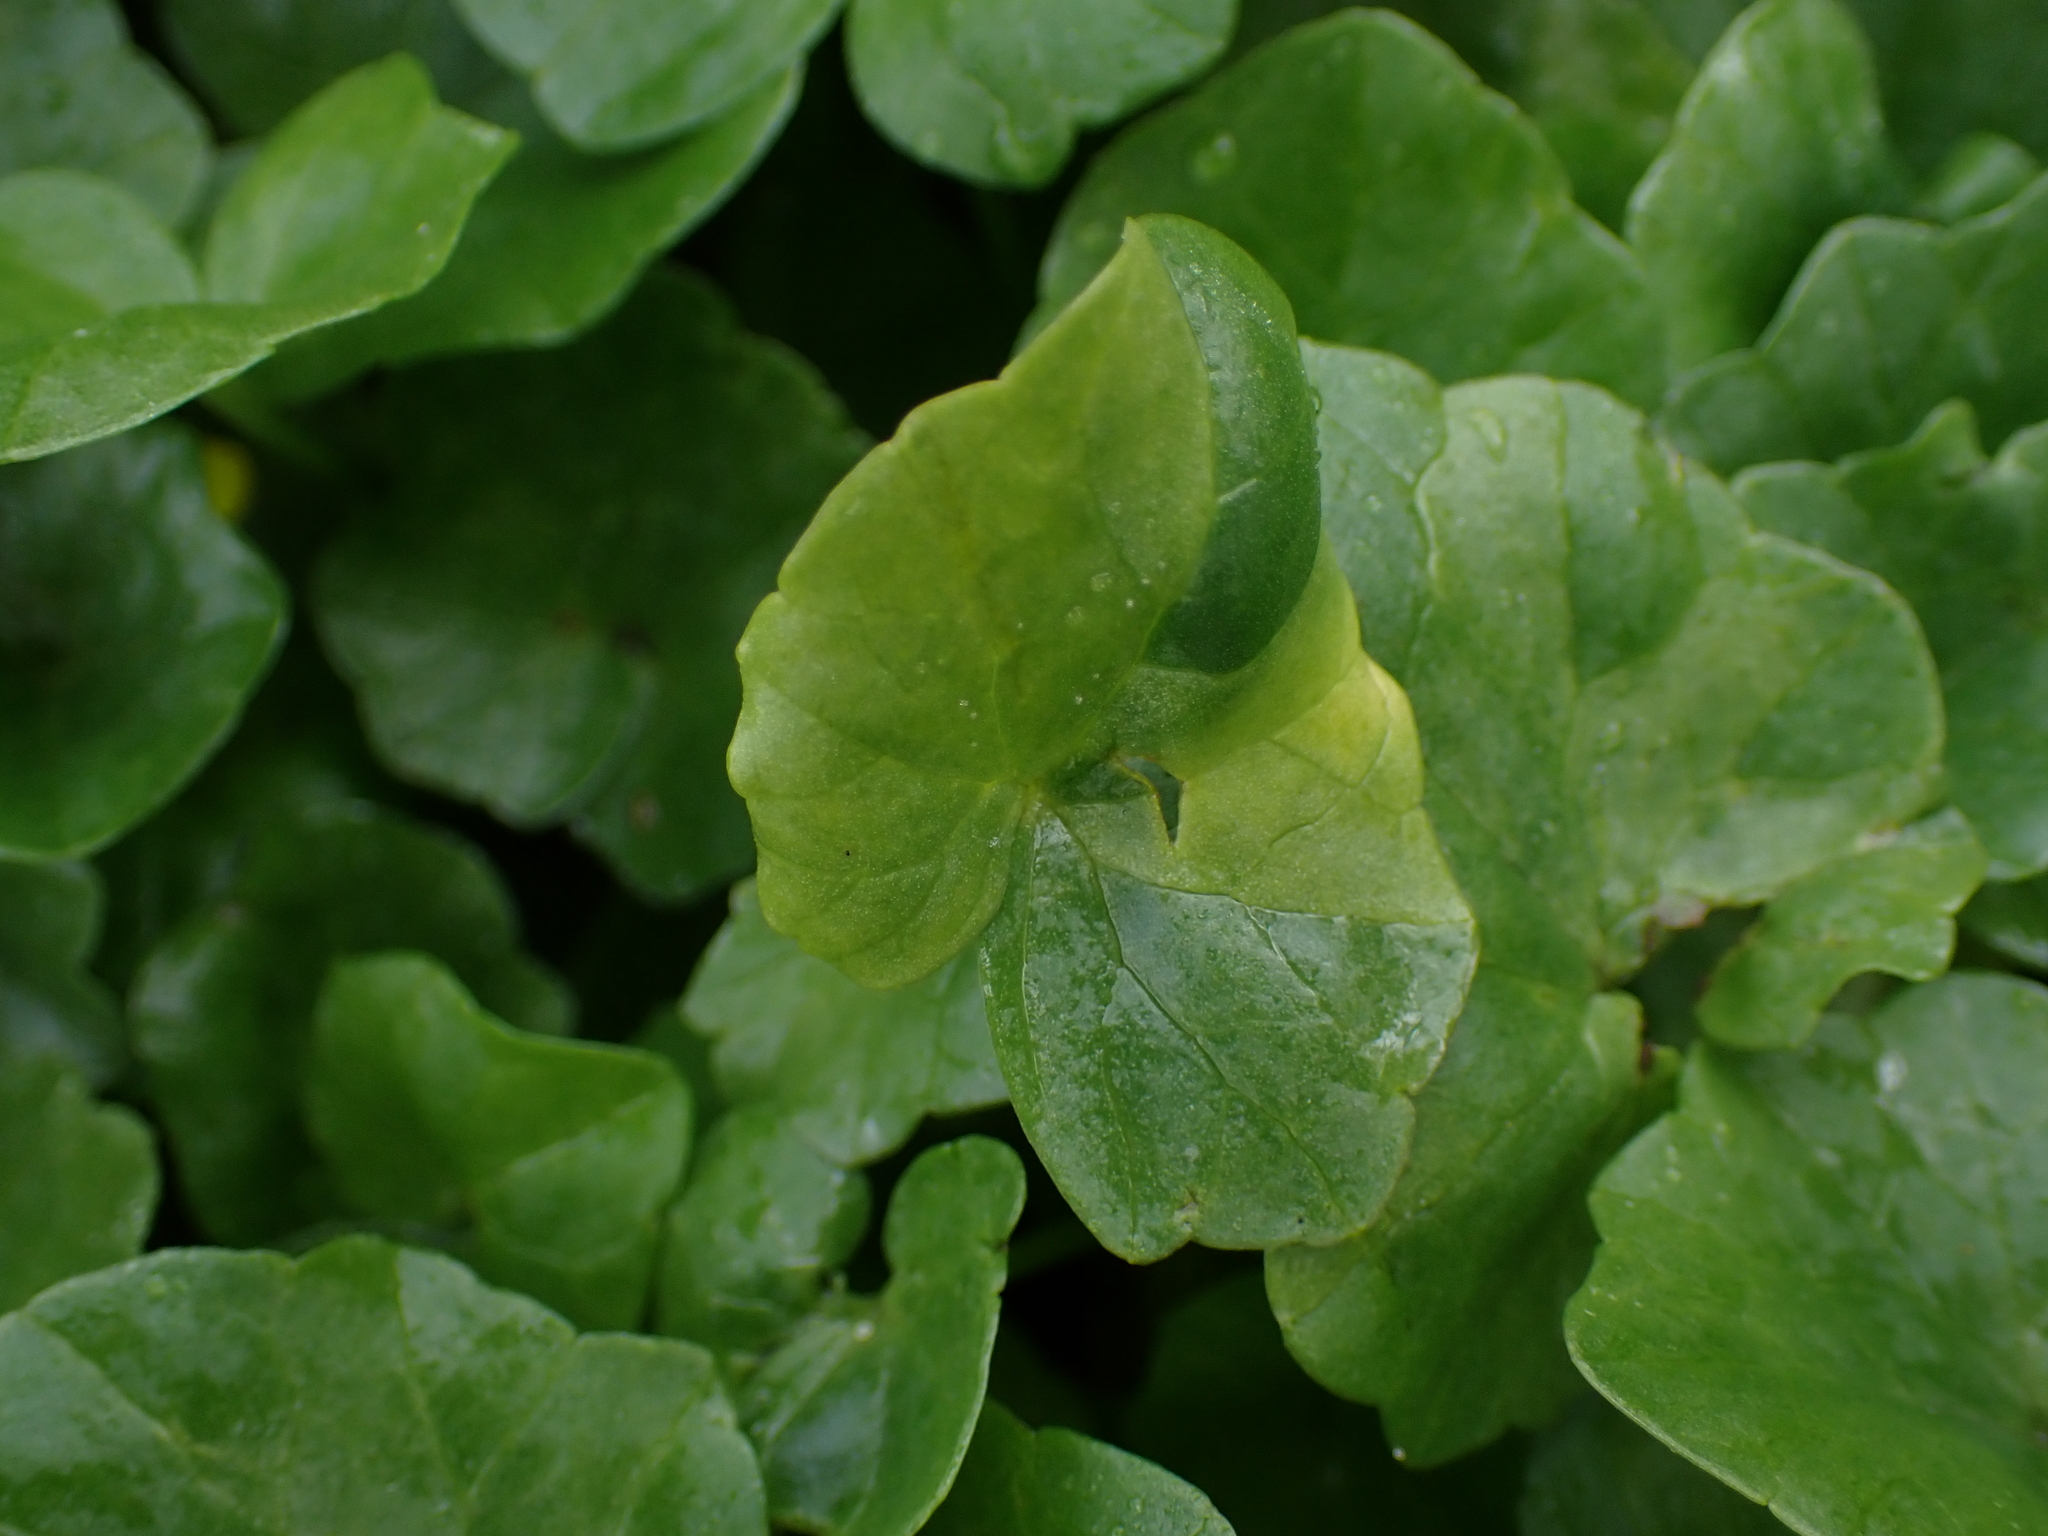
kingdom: Chromista
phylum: Oomycota
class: Peronosporea
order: Peronosporales
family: Peronosporaceae
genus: Peronospora
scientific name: Peronospora ficariae
